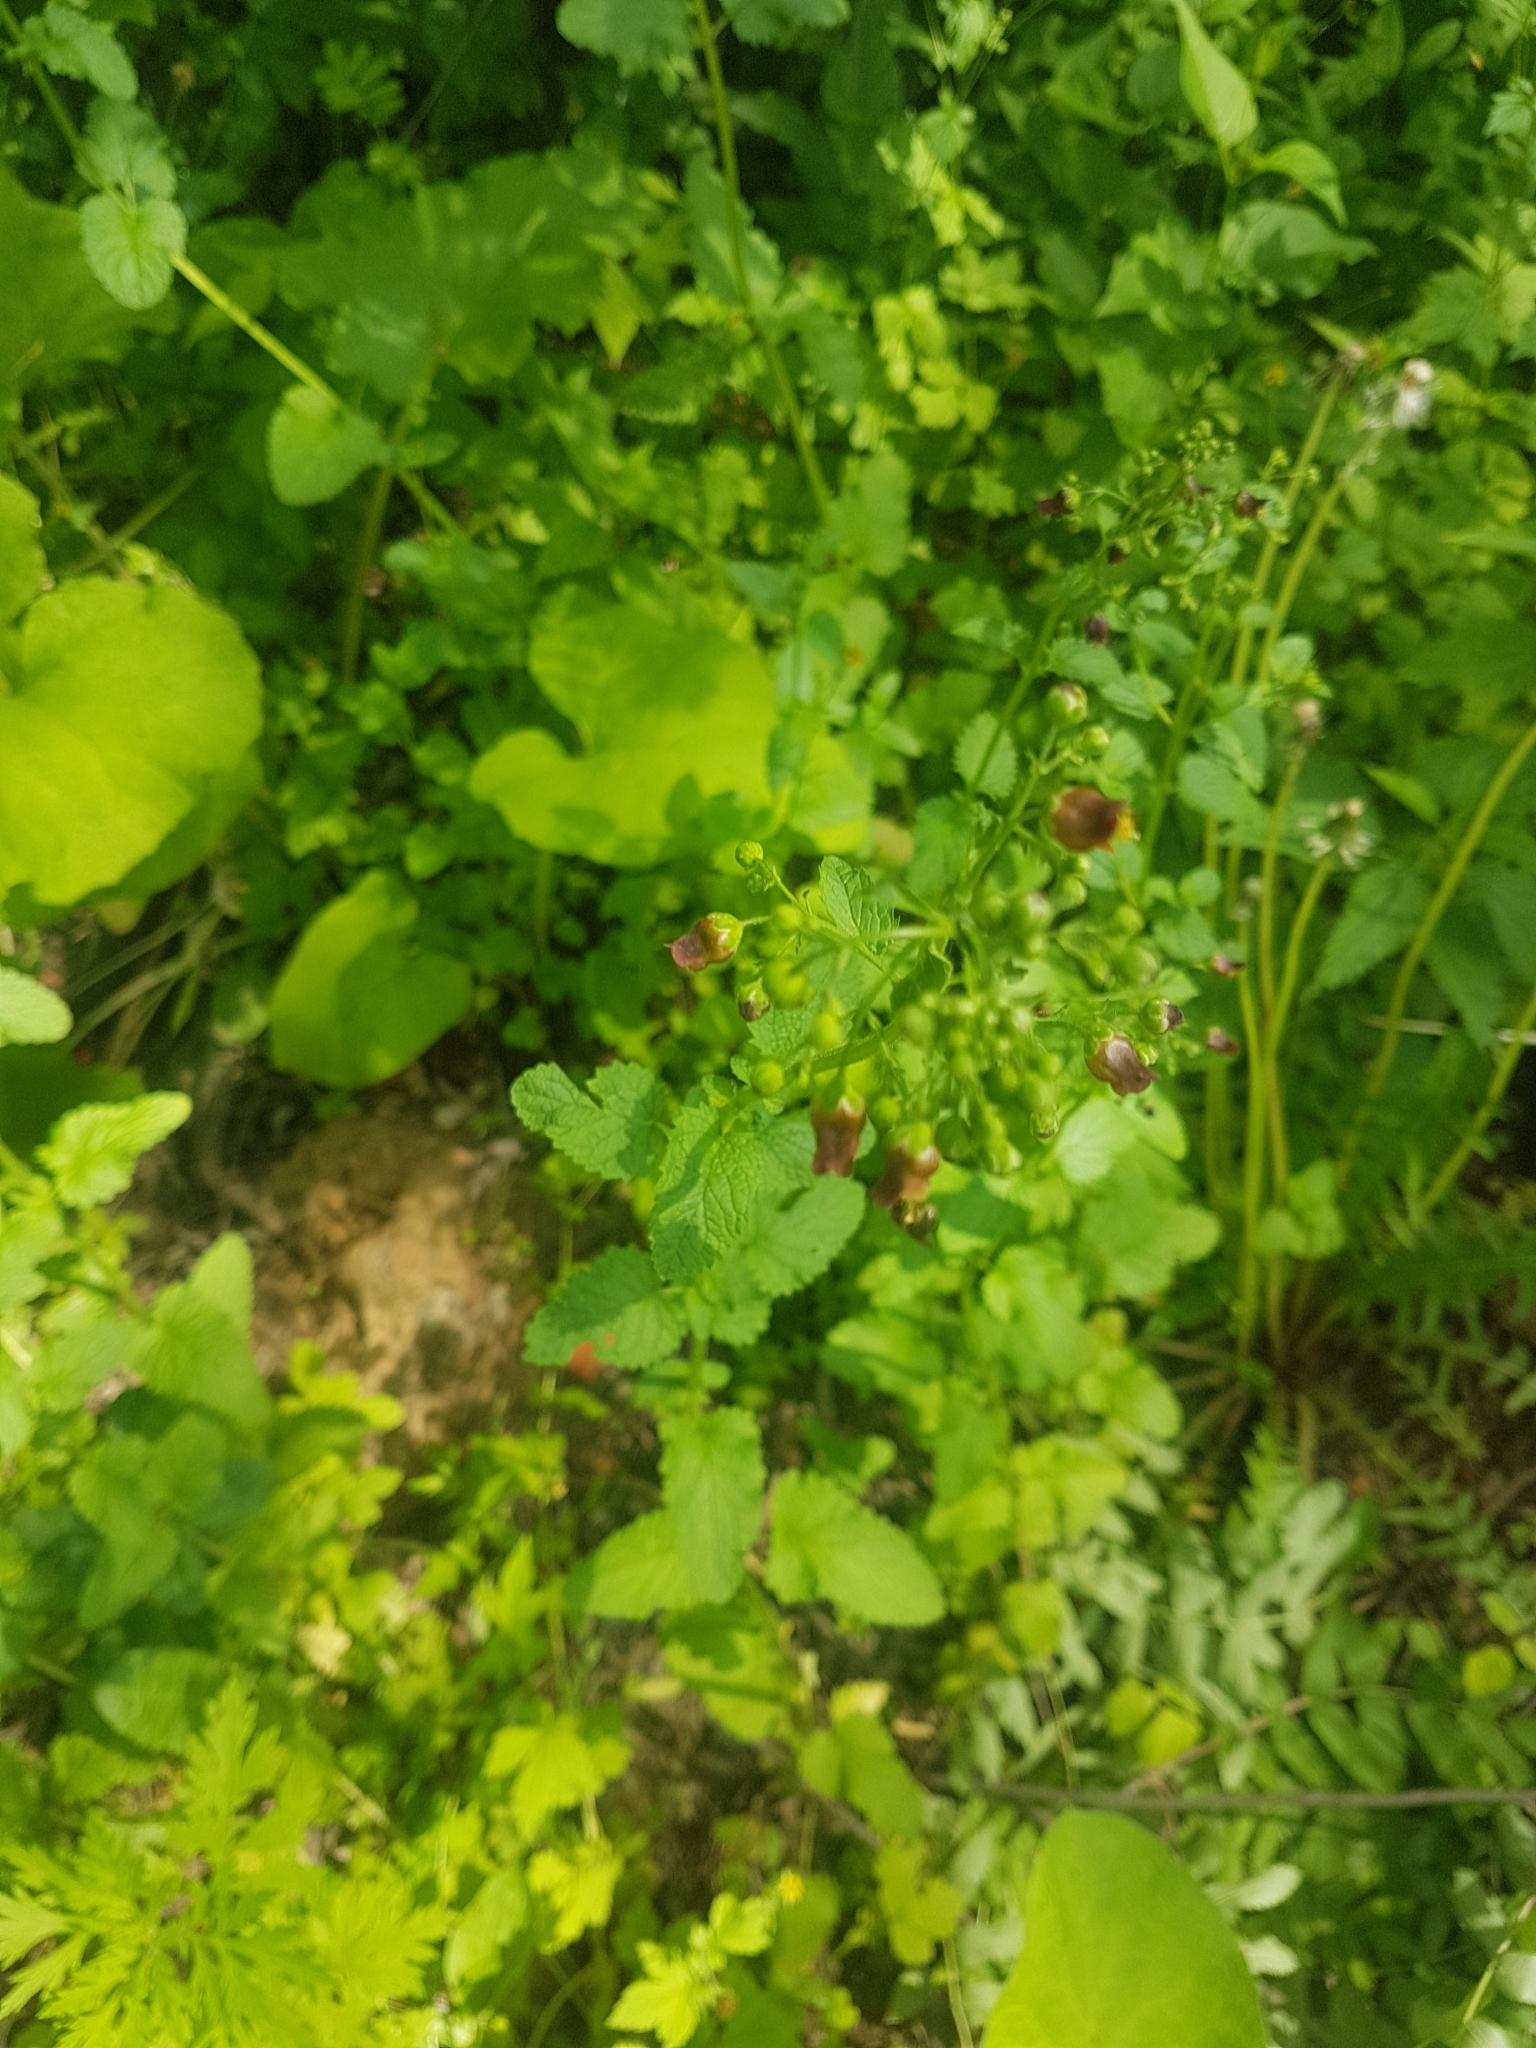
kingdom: Plantae
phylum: Tracheophyta
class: Magnoliopsida
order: Lamiales
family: Scrophulariaceae
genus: Scrophularia
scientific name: Scrophularia nodosa
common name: Common figwort
